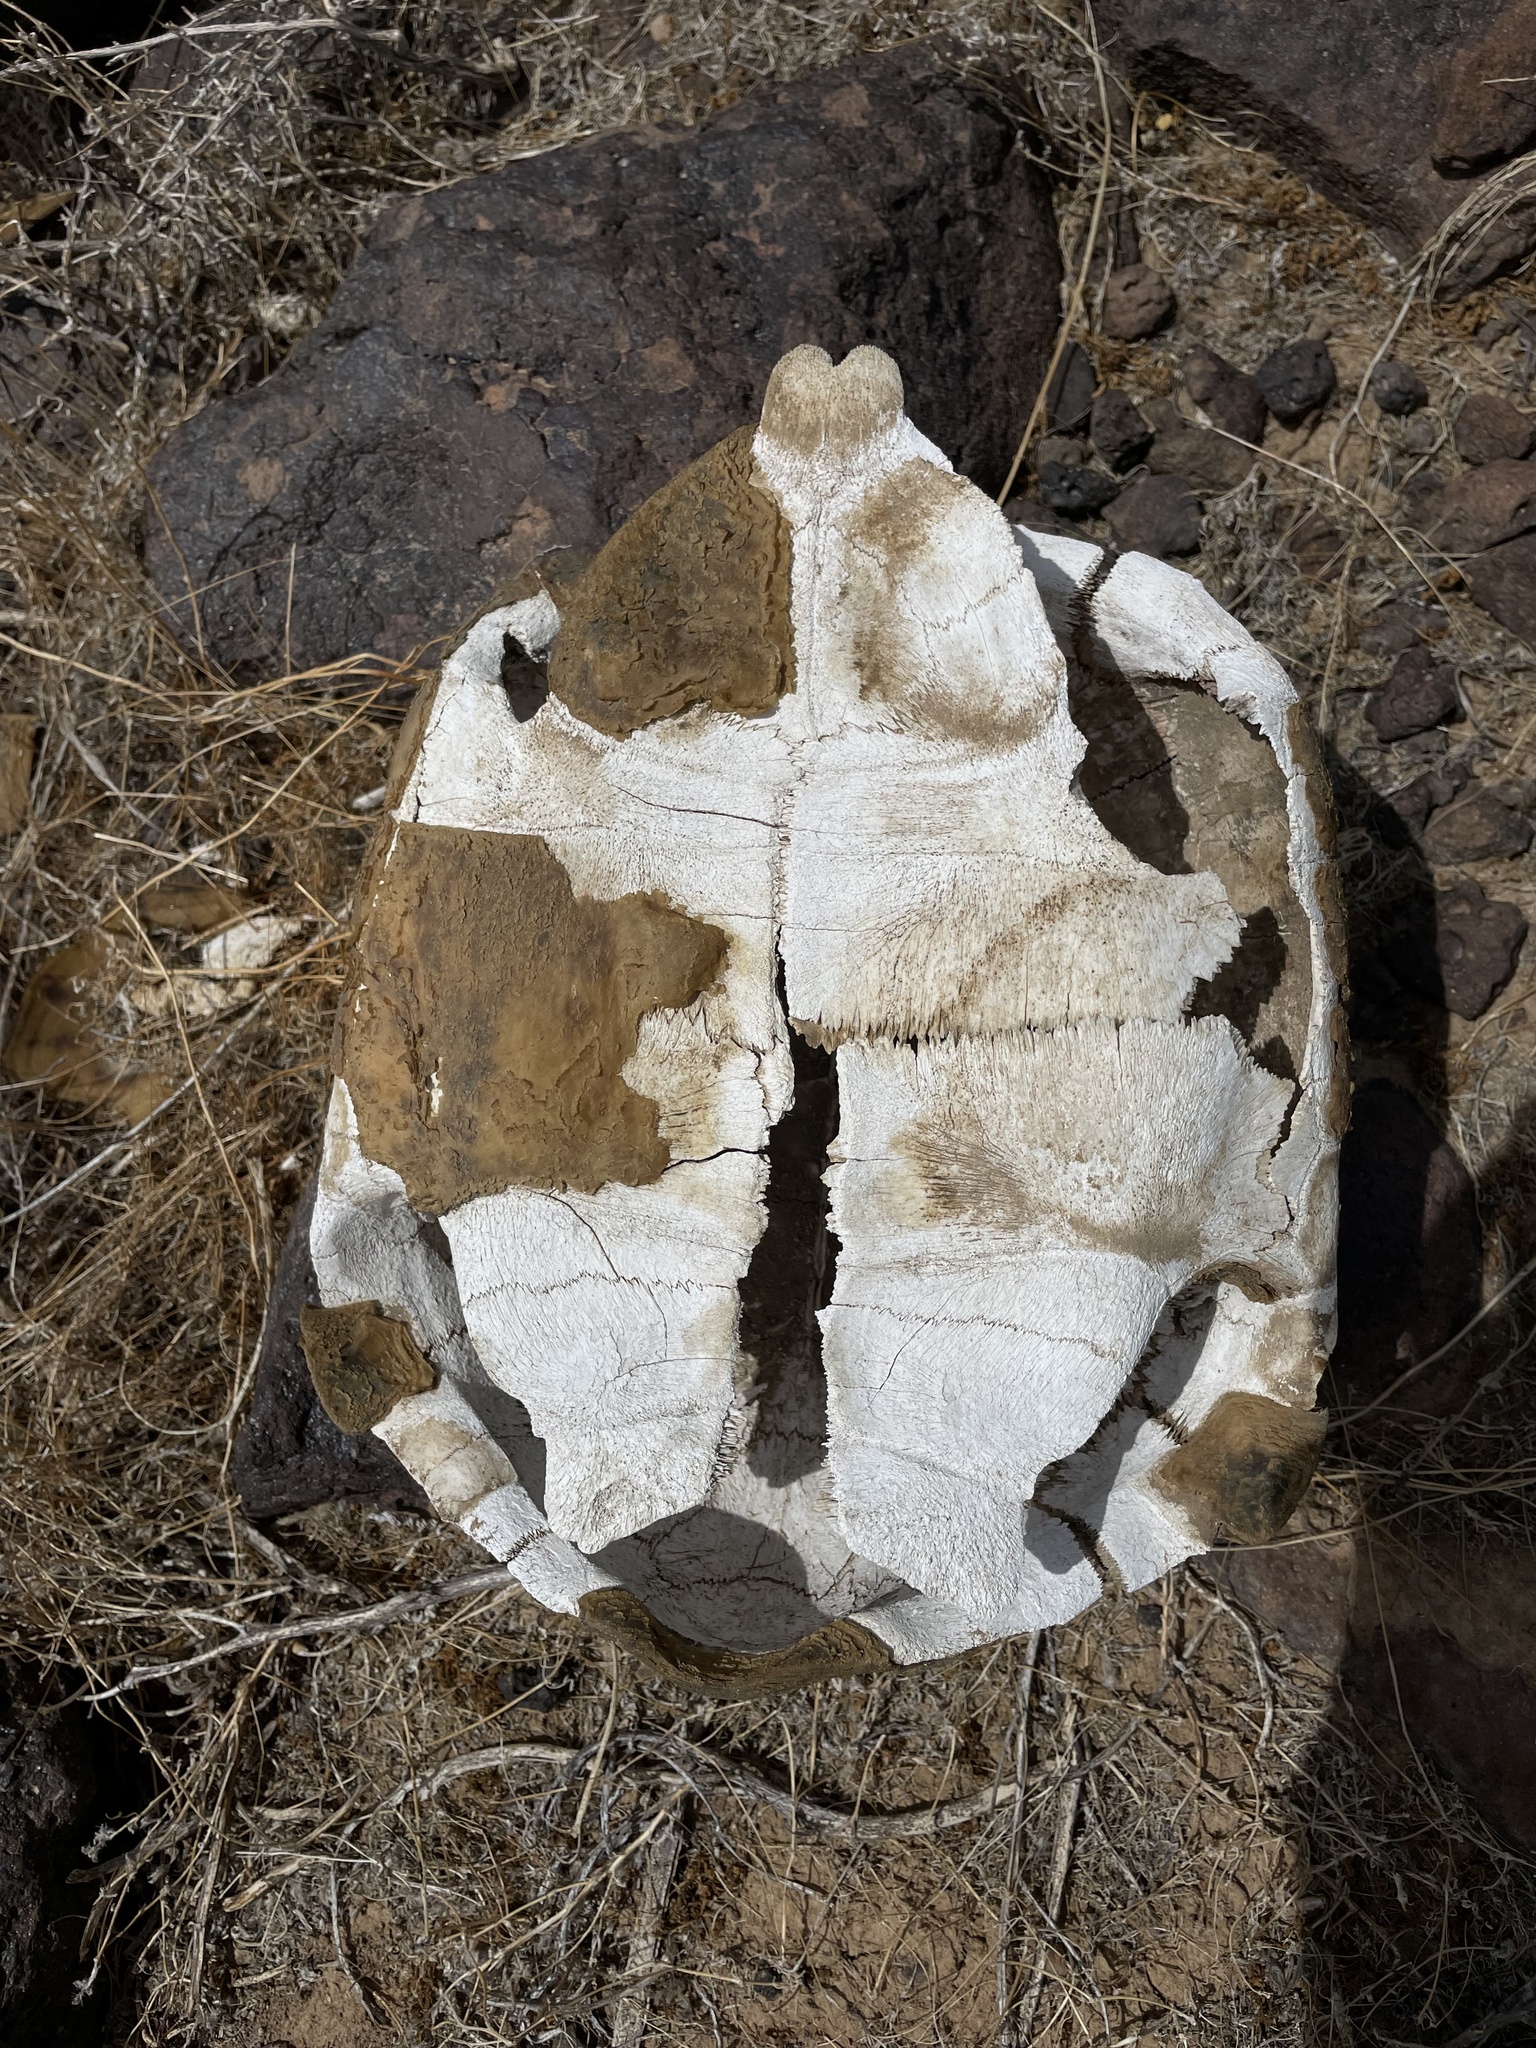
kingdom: Animalia
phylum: Chordata
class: Testudines
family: Testudinidae
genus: Gopherus
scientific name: Gopherus agassizii
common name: Mojave desert tortoise
